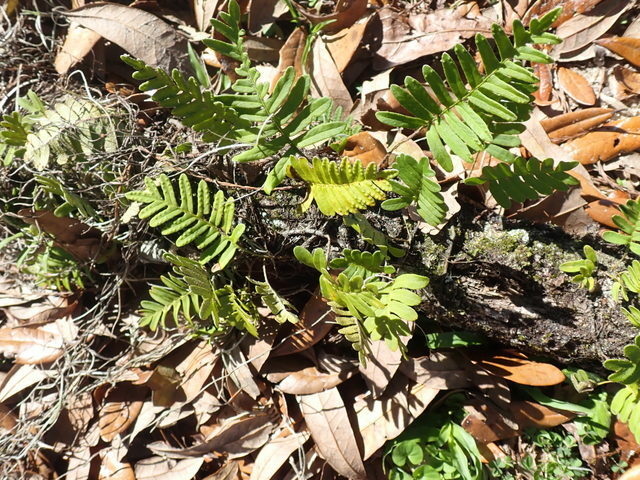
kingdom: Plantae
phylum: Tracheophyta
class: Polypodiopsida
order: Polypodiales
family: Polypodiaceae
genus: Pleopeltis
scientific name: Pleopeltis michauxiana
